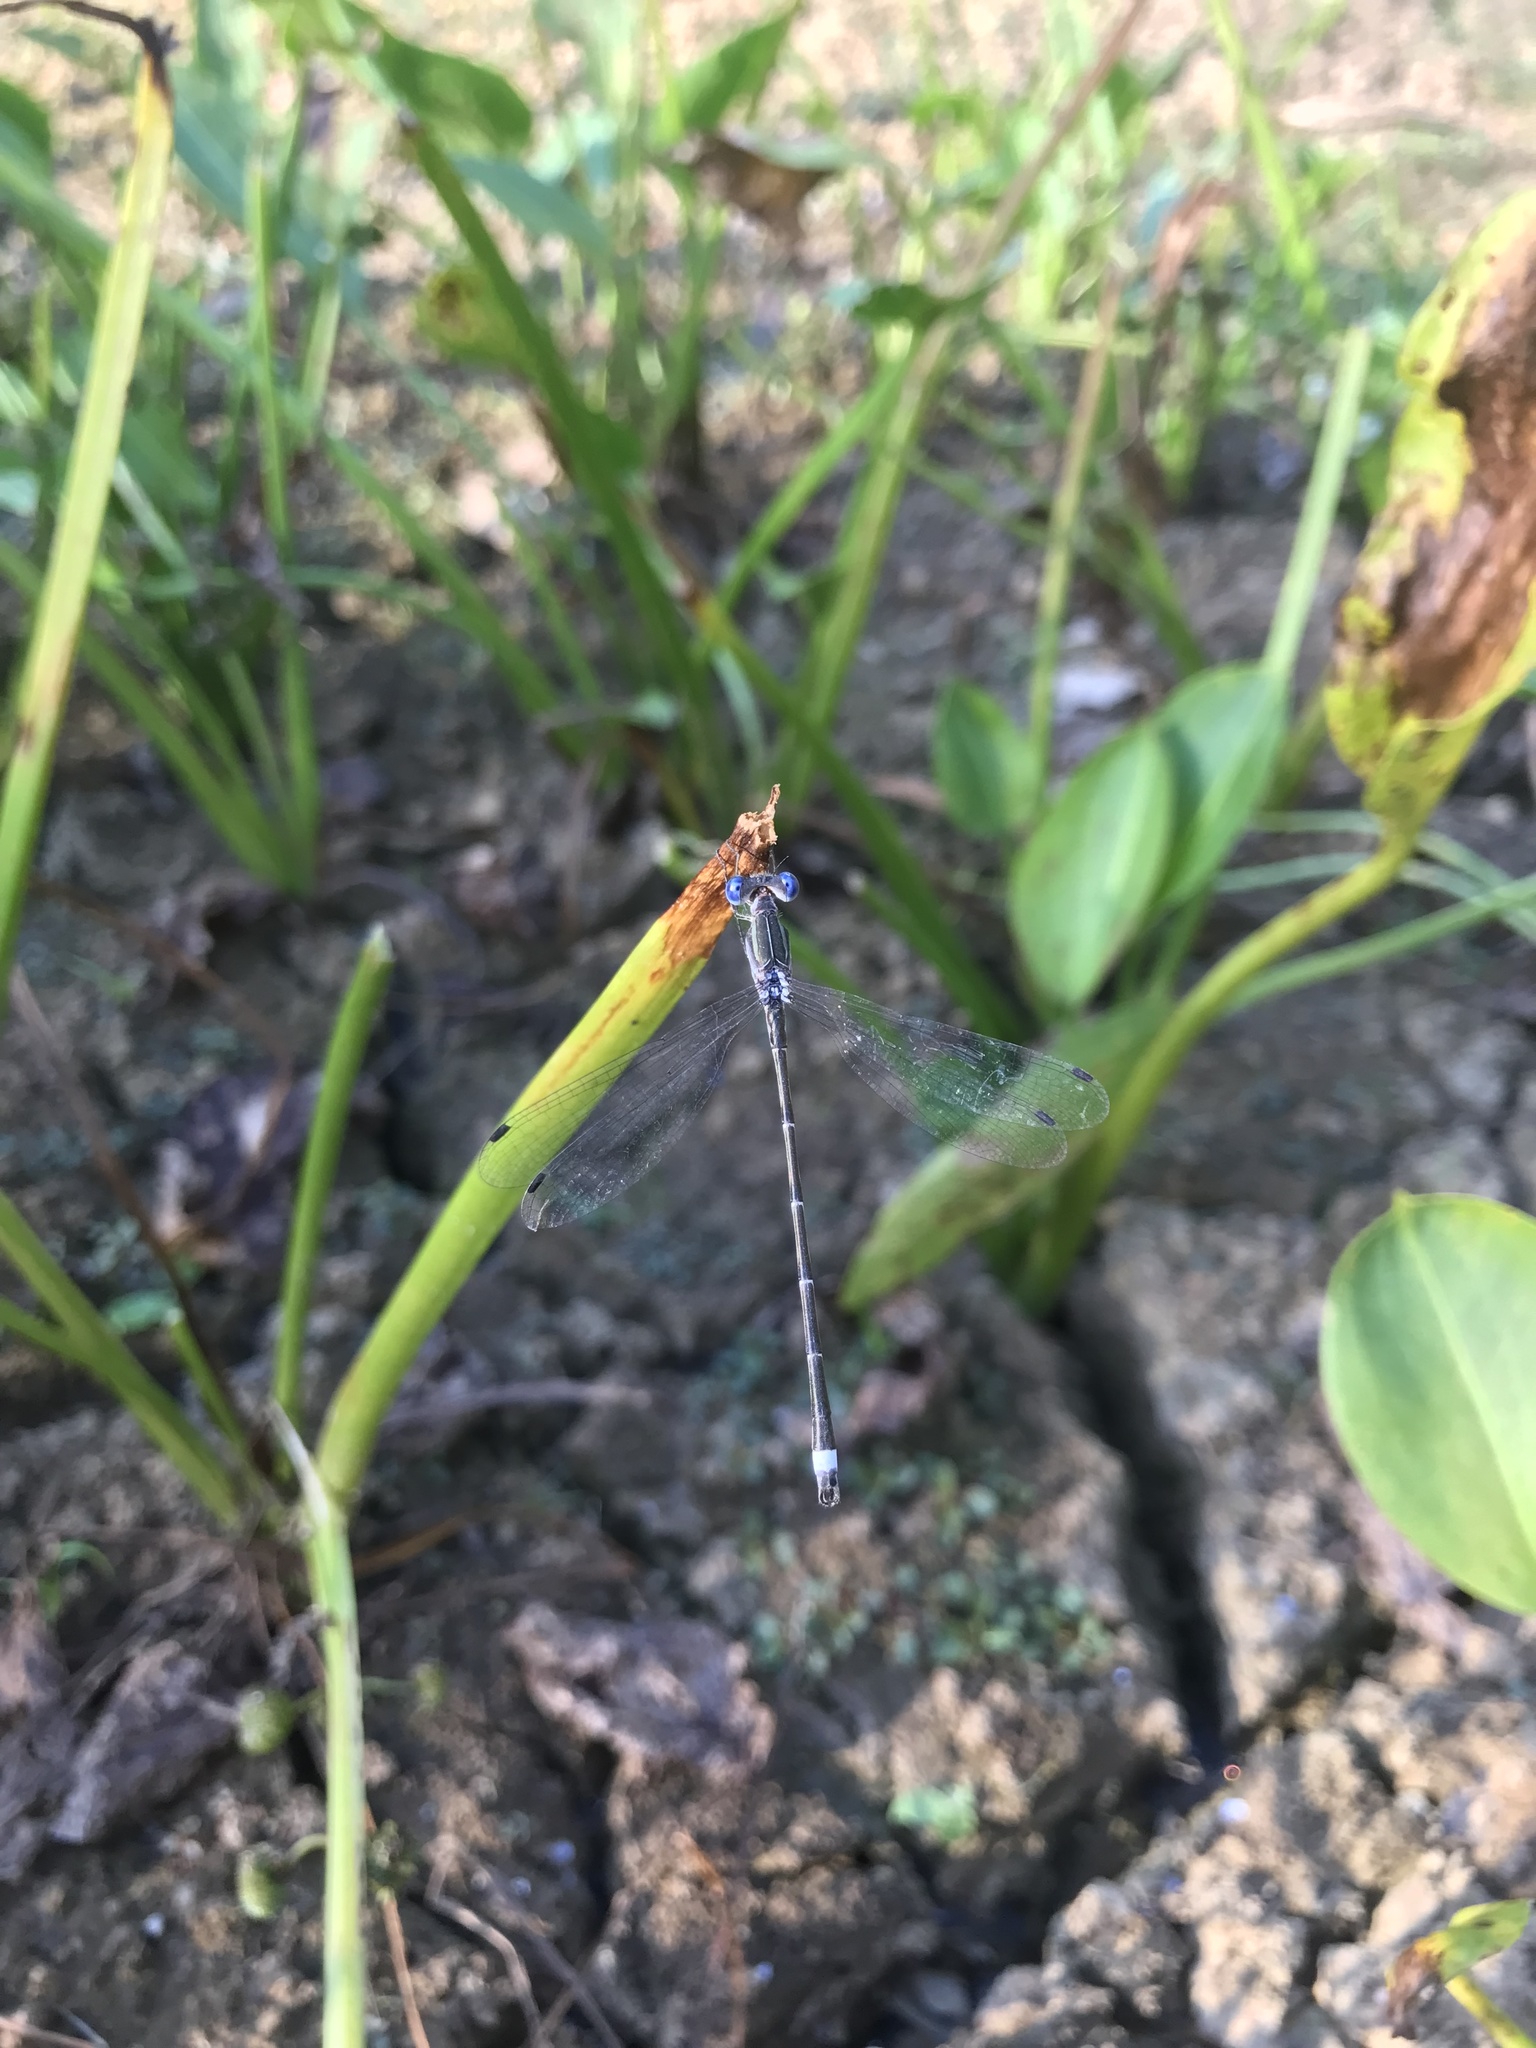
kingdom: Animalia
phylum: Arthropoda
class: Insecta
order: Odonata
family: Lestidae
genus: Lestes
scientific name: Lestes australis
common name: Southern spreadwing
